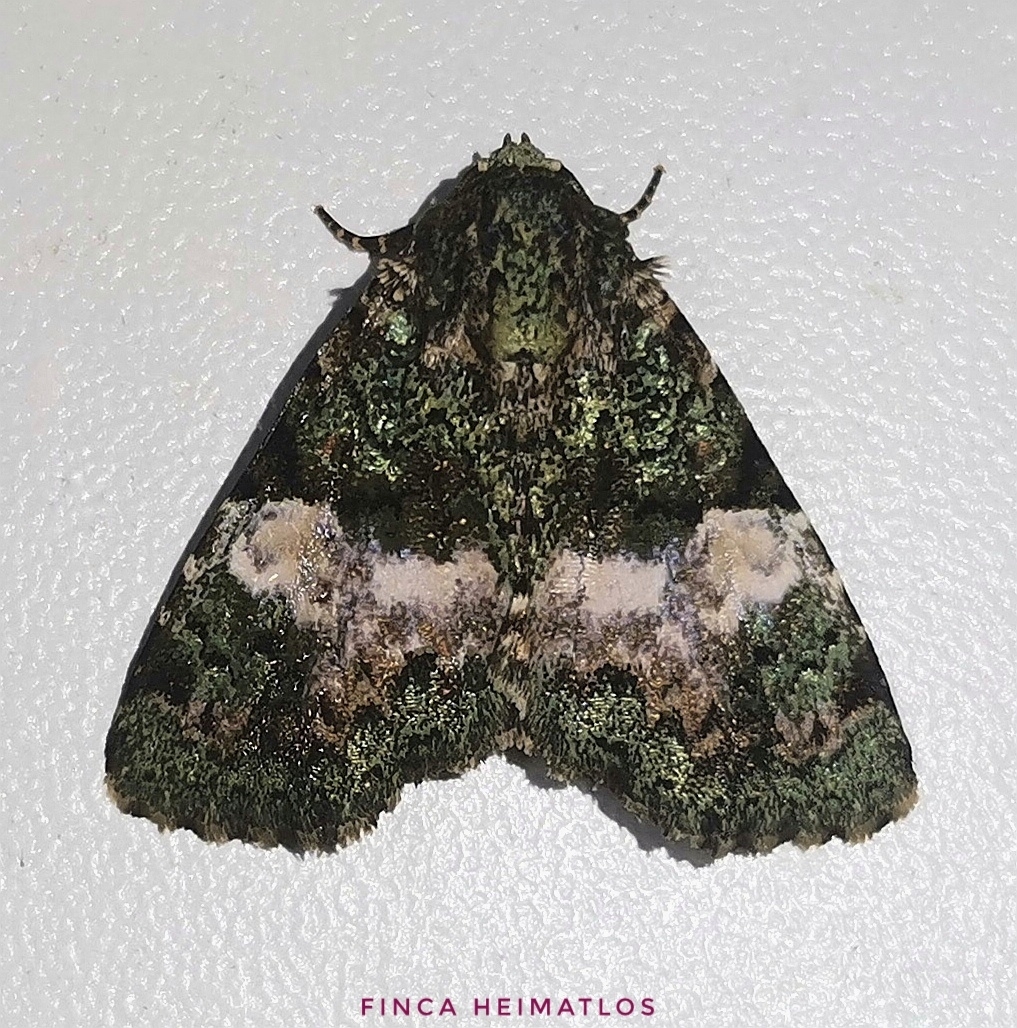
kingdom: Animalia
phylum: Arthropoda
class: Insecta
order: Lepidoptera
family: Erebidae
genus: Eudyops
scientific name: Eudyops fuscoviridis
